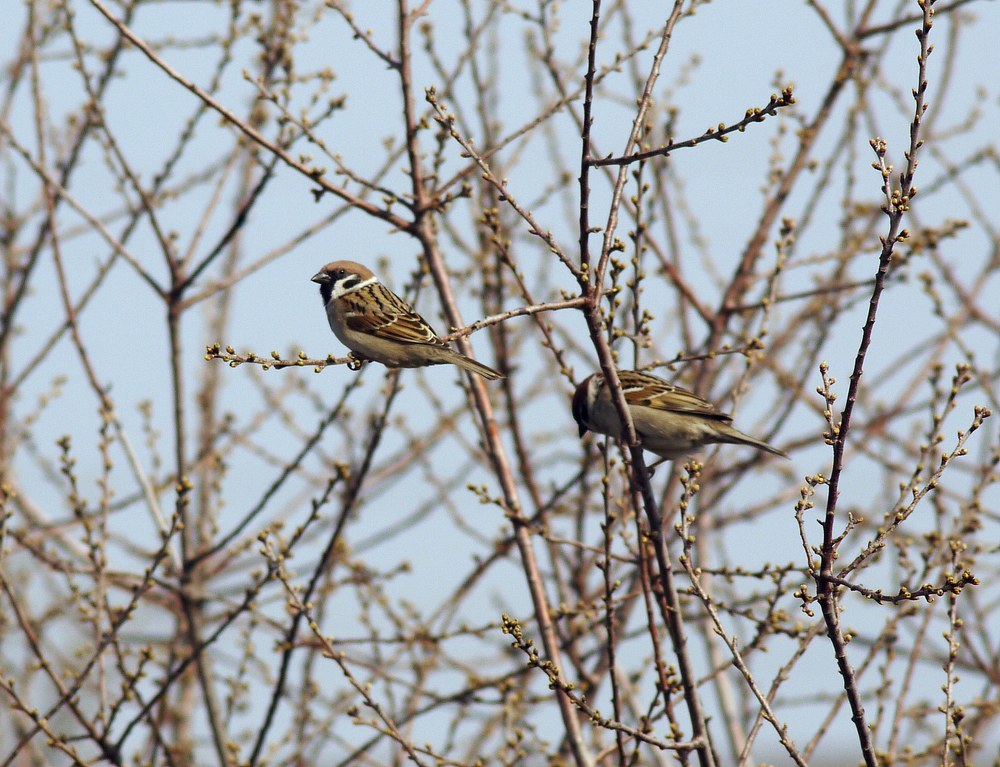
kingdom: Animalia
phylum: Chordata
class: Aves
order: Passeriformes
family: Passeridae
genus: Passer
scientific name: Passer montanus
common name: Eurasian tree sparrow
